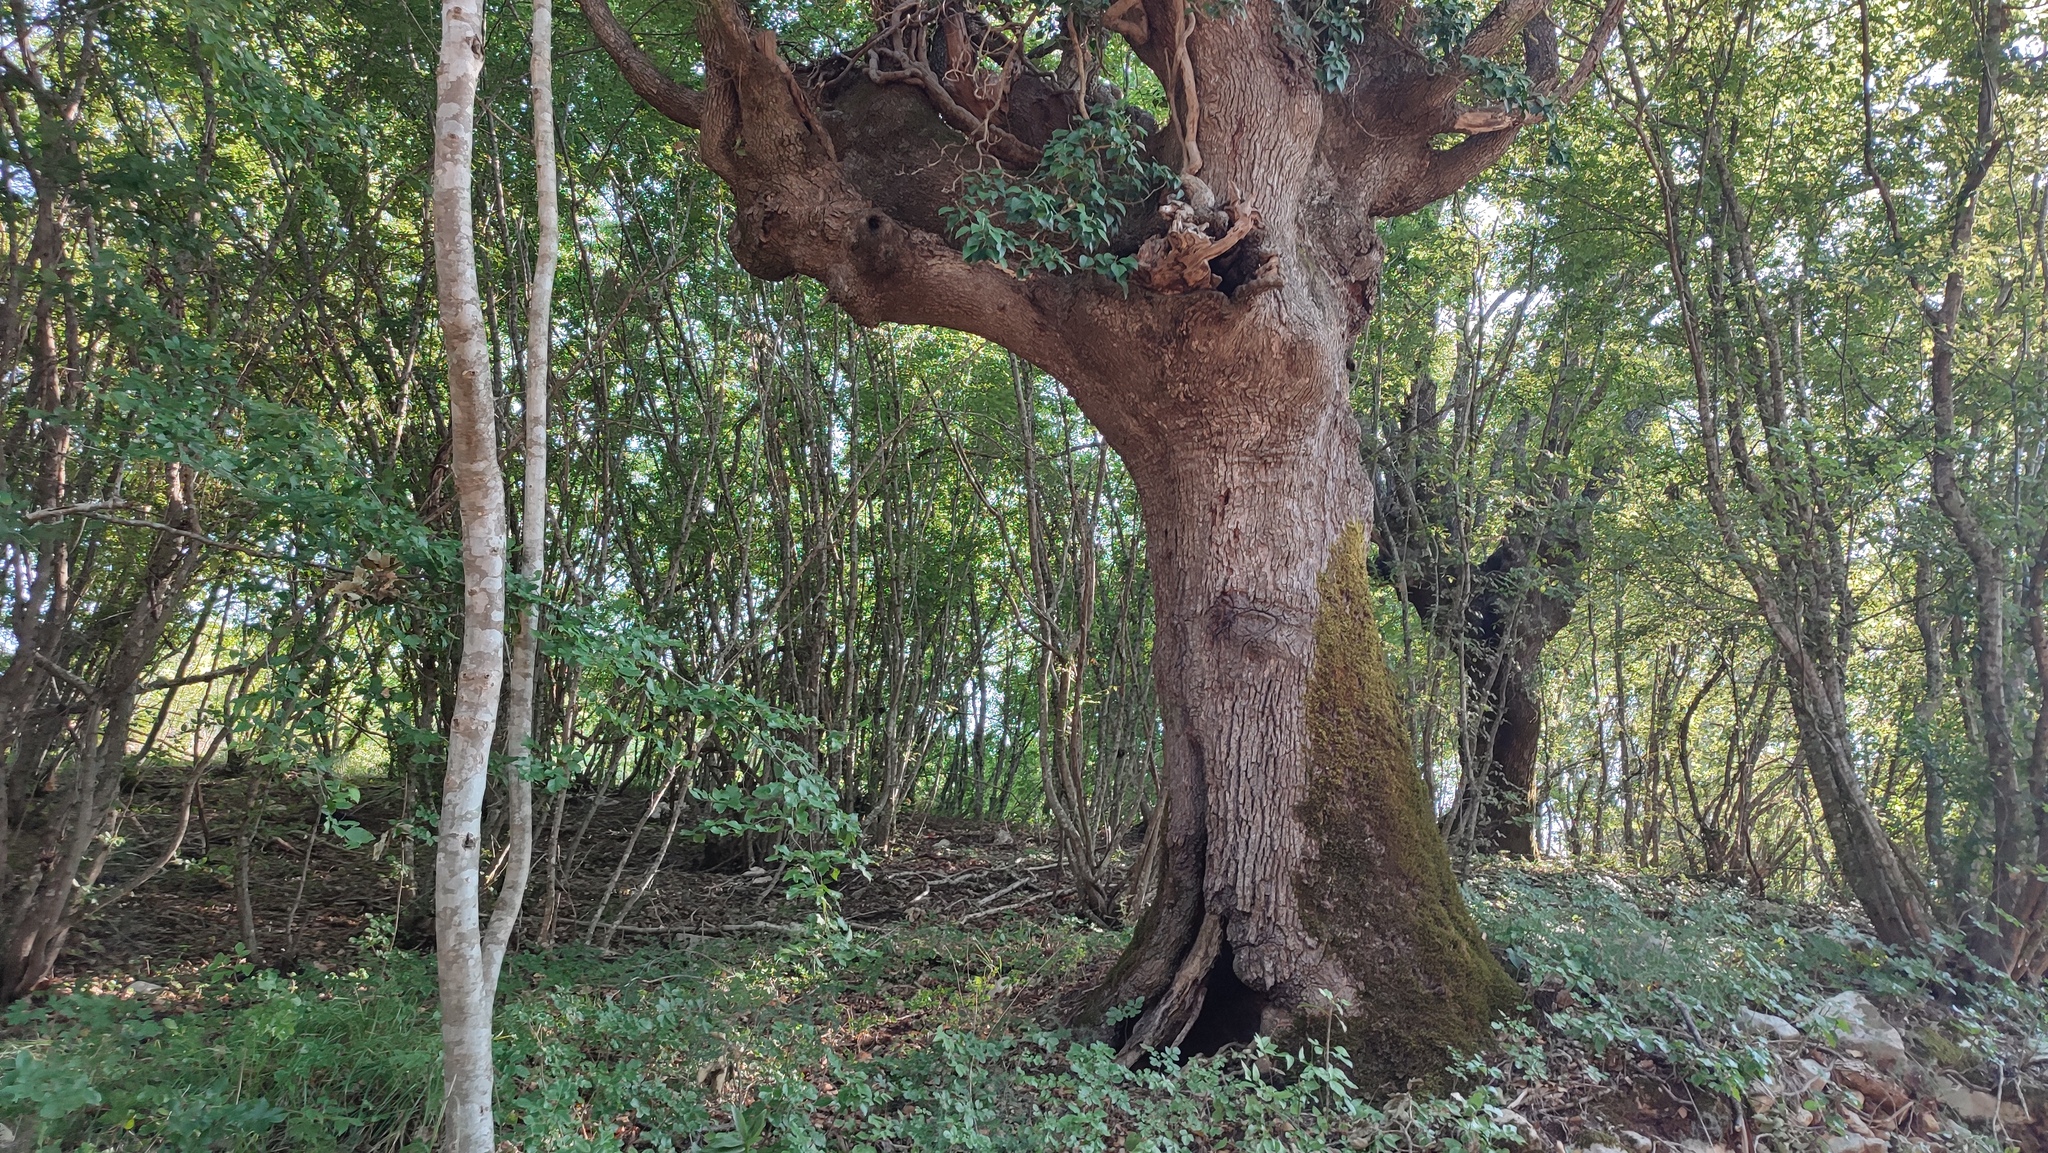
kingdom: Plantae
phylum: Tracheophyta
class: Magnoliopsida
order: Fagales
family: Fagaceae
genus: Quercus
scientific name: Quercus pubescens
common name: Downy oak
